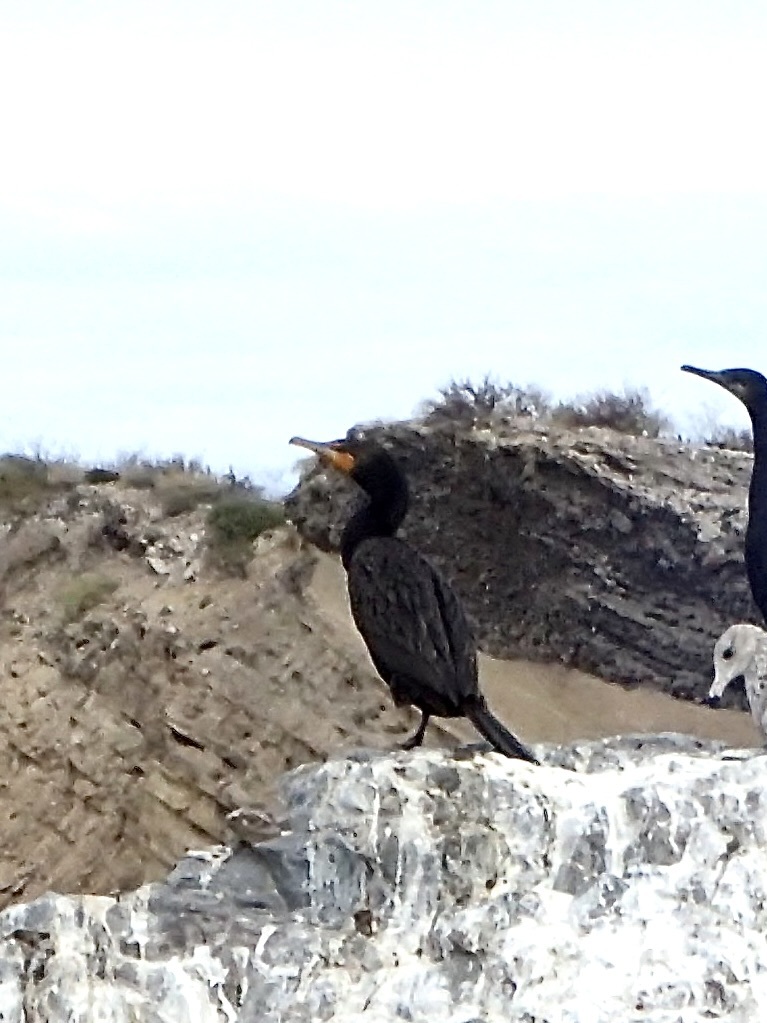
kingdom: Animalia
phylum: Chordata
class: Aves
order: Suliformes
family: Phalacrocoracidae
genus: Phalacrocorax
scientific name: Phalacrocorax auritus
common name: Double-crested cormorant
